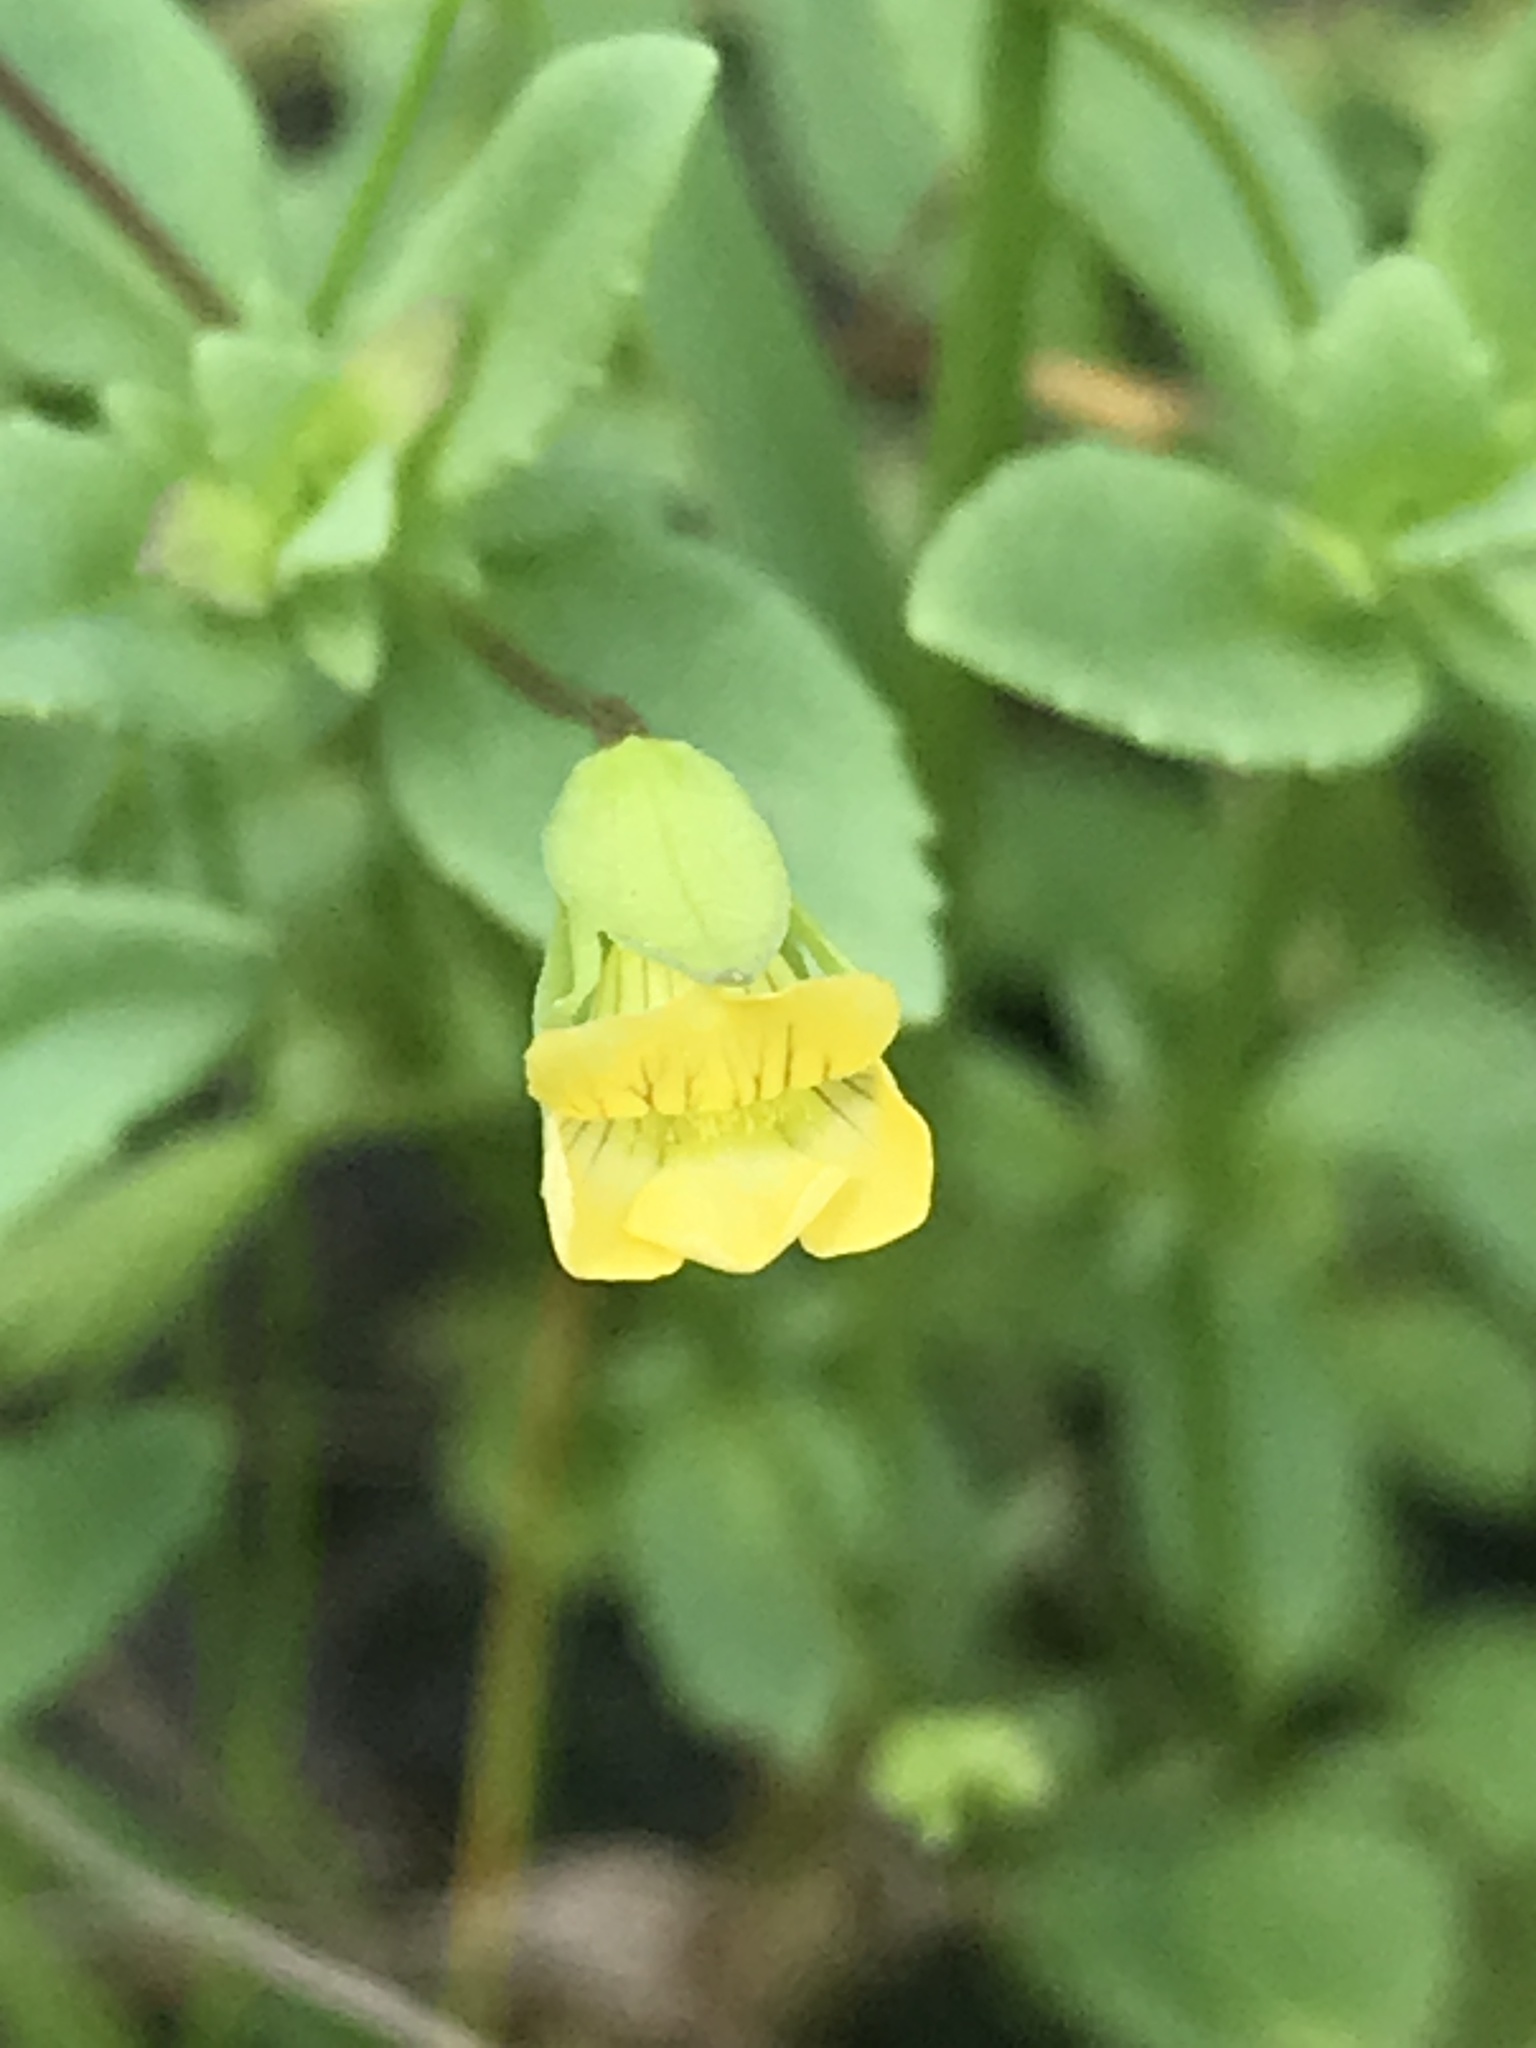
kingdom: Plantae
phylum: Tracheophyta
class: Magnoliopsida
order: Lamiales
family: Plantaginaceae
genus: Mecardonia
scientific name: Mecardonia procumbens
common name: Baby jump-up
